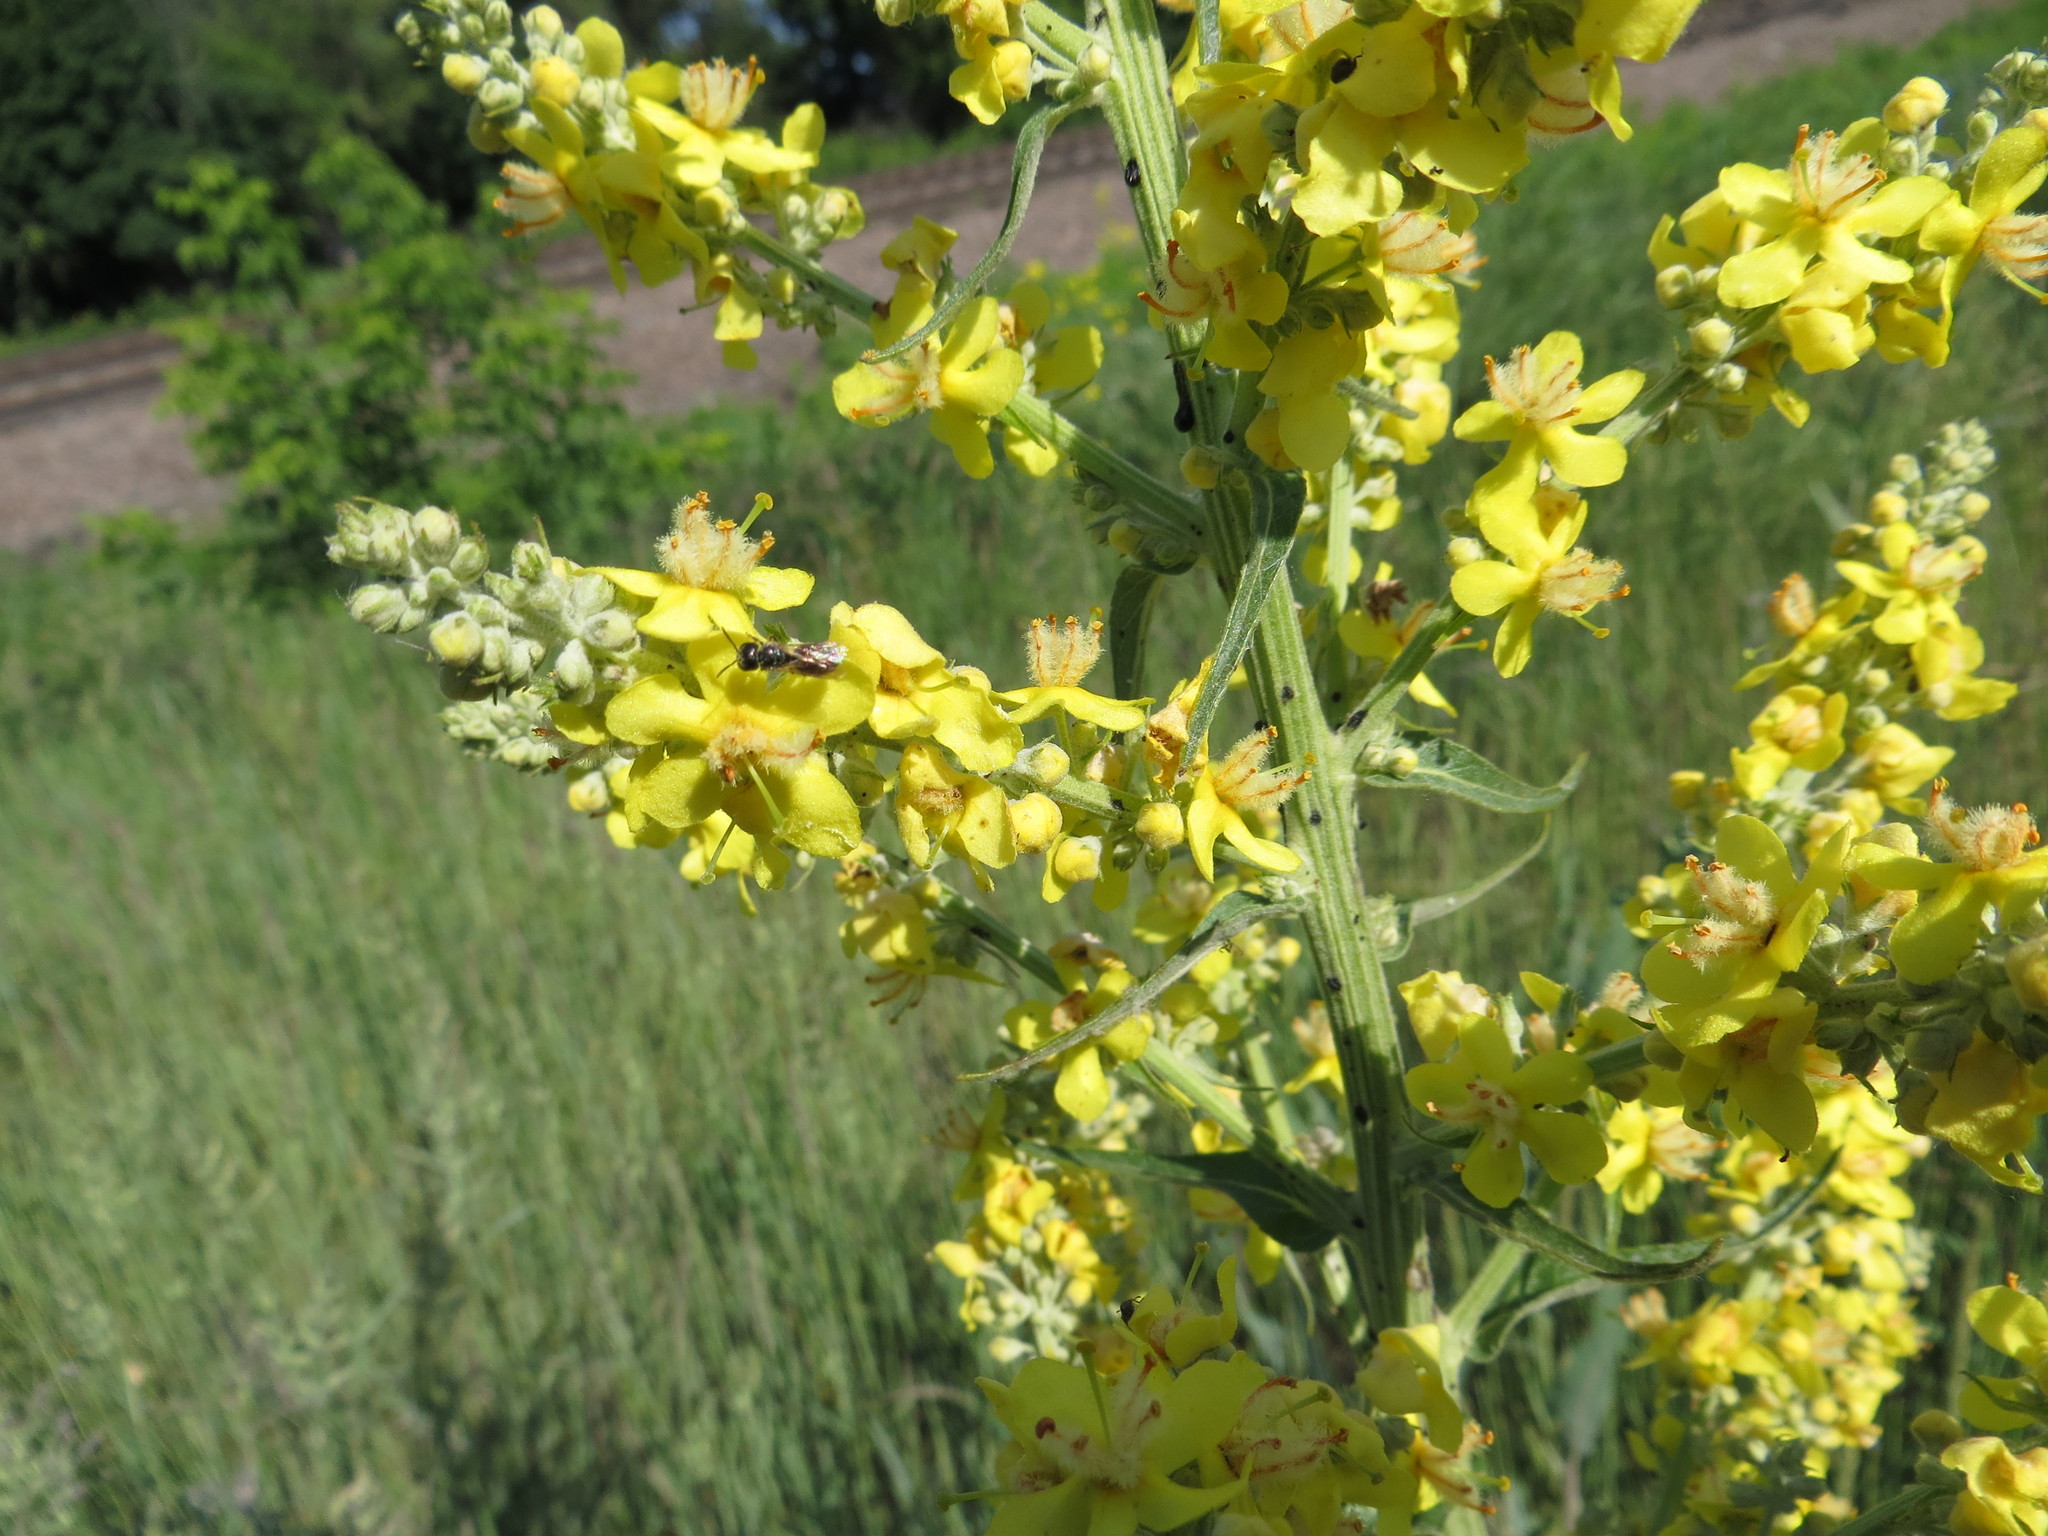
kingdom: Plantae
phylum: Tracheophyta
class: Magnoliopsida
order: Lamiales
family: Scrophulariaceae
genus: Verbascum
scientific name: Verbascum lychnitis
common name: White mullein
